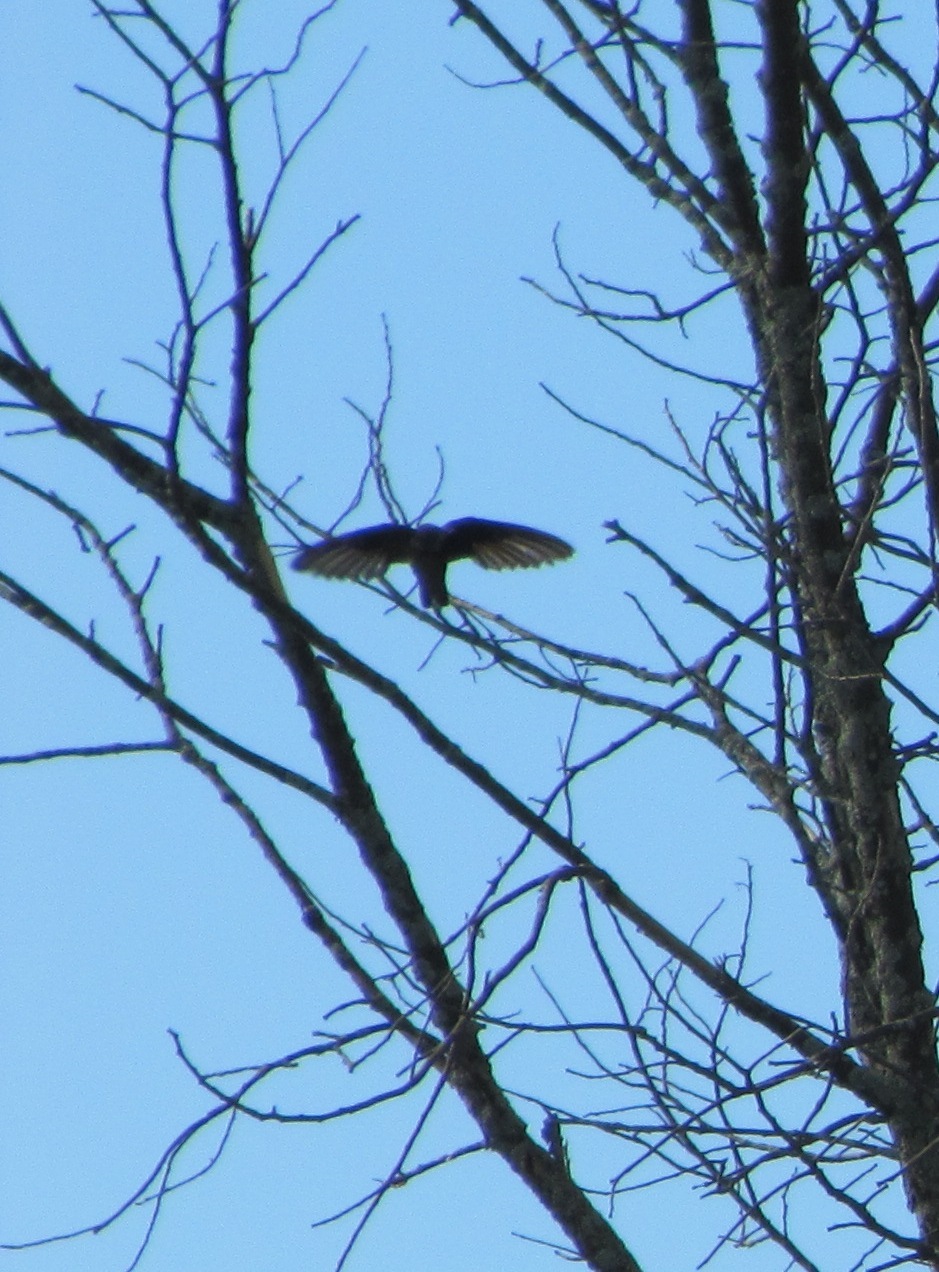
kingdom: Animalia
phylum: Chordata
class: Aves
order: Apodiformes
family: Apodidae
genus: Chaetura
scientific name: Chaetura pelagica
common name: Chimney swift
